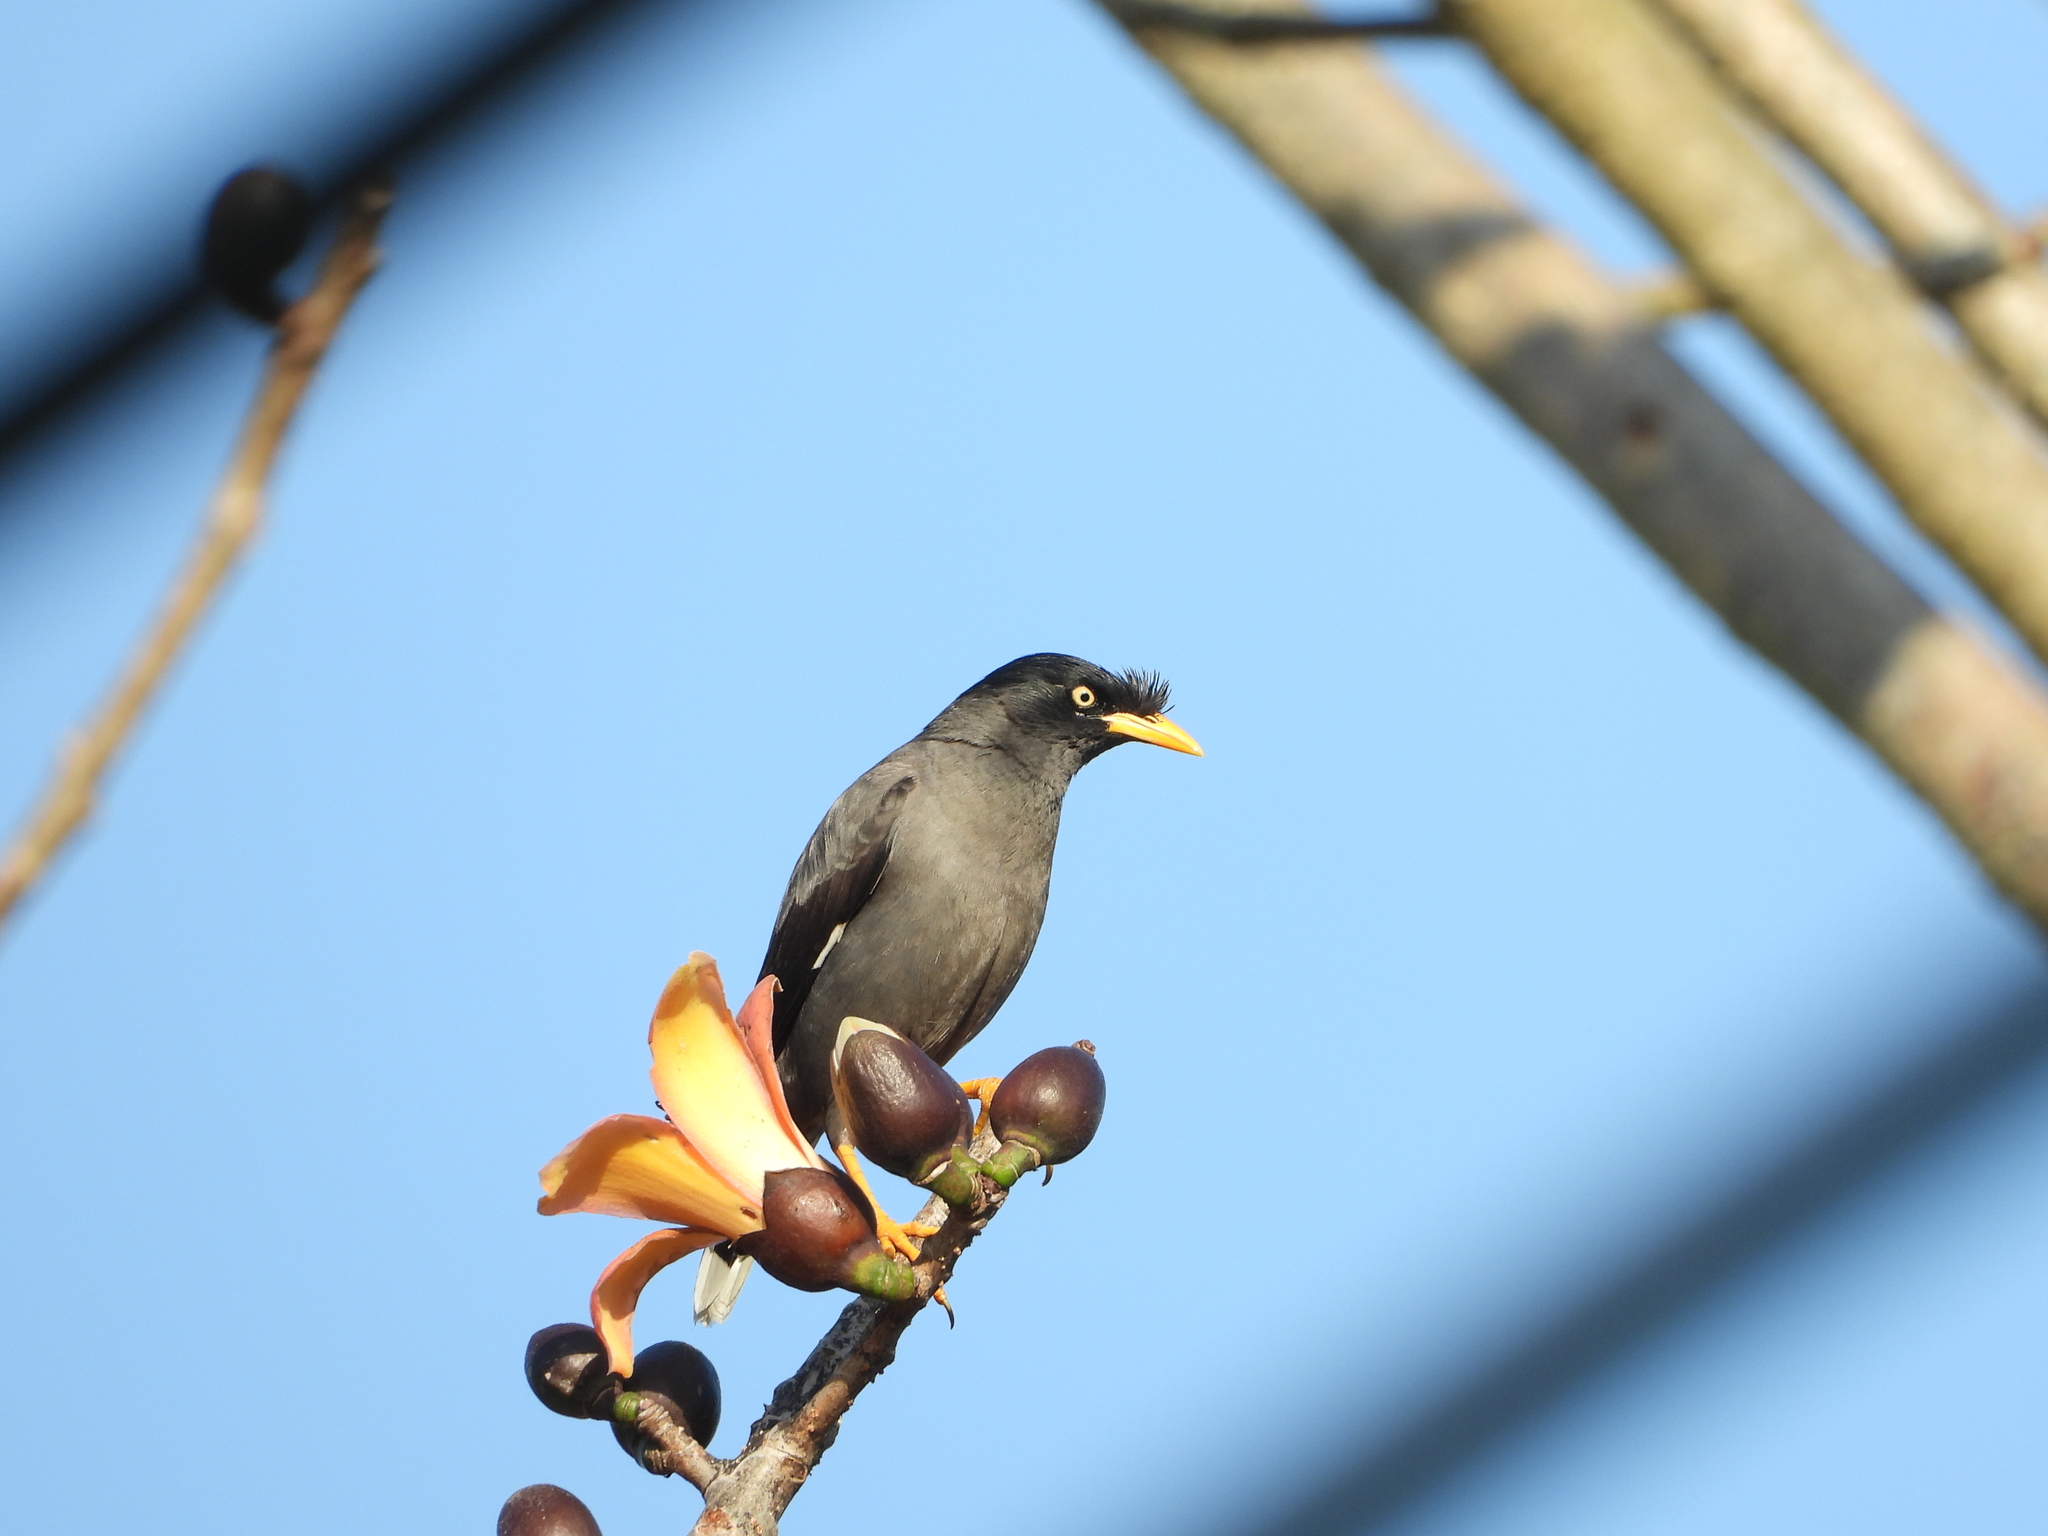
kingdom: Animalia
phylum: Chordata
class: Aves
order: Passeriformes
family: Sturnidae
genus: Acridotheres
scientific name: Acridotheres javanicus
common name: Javan myna
